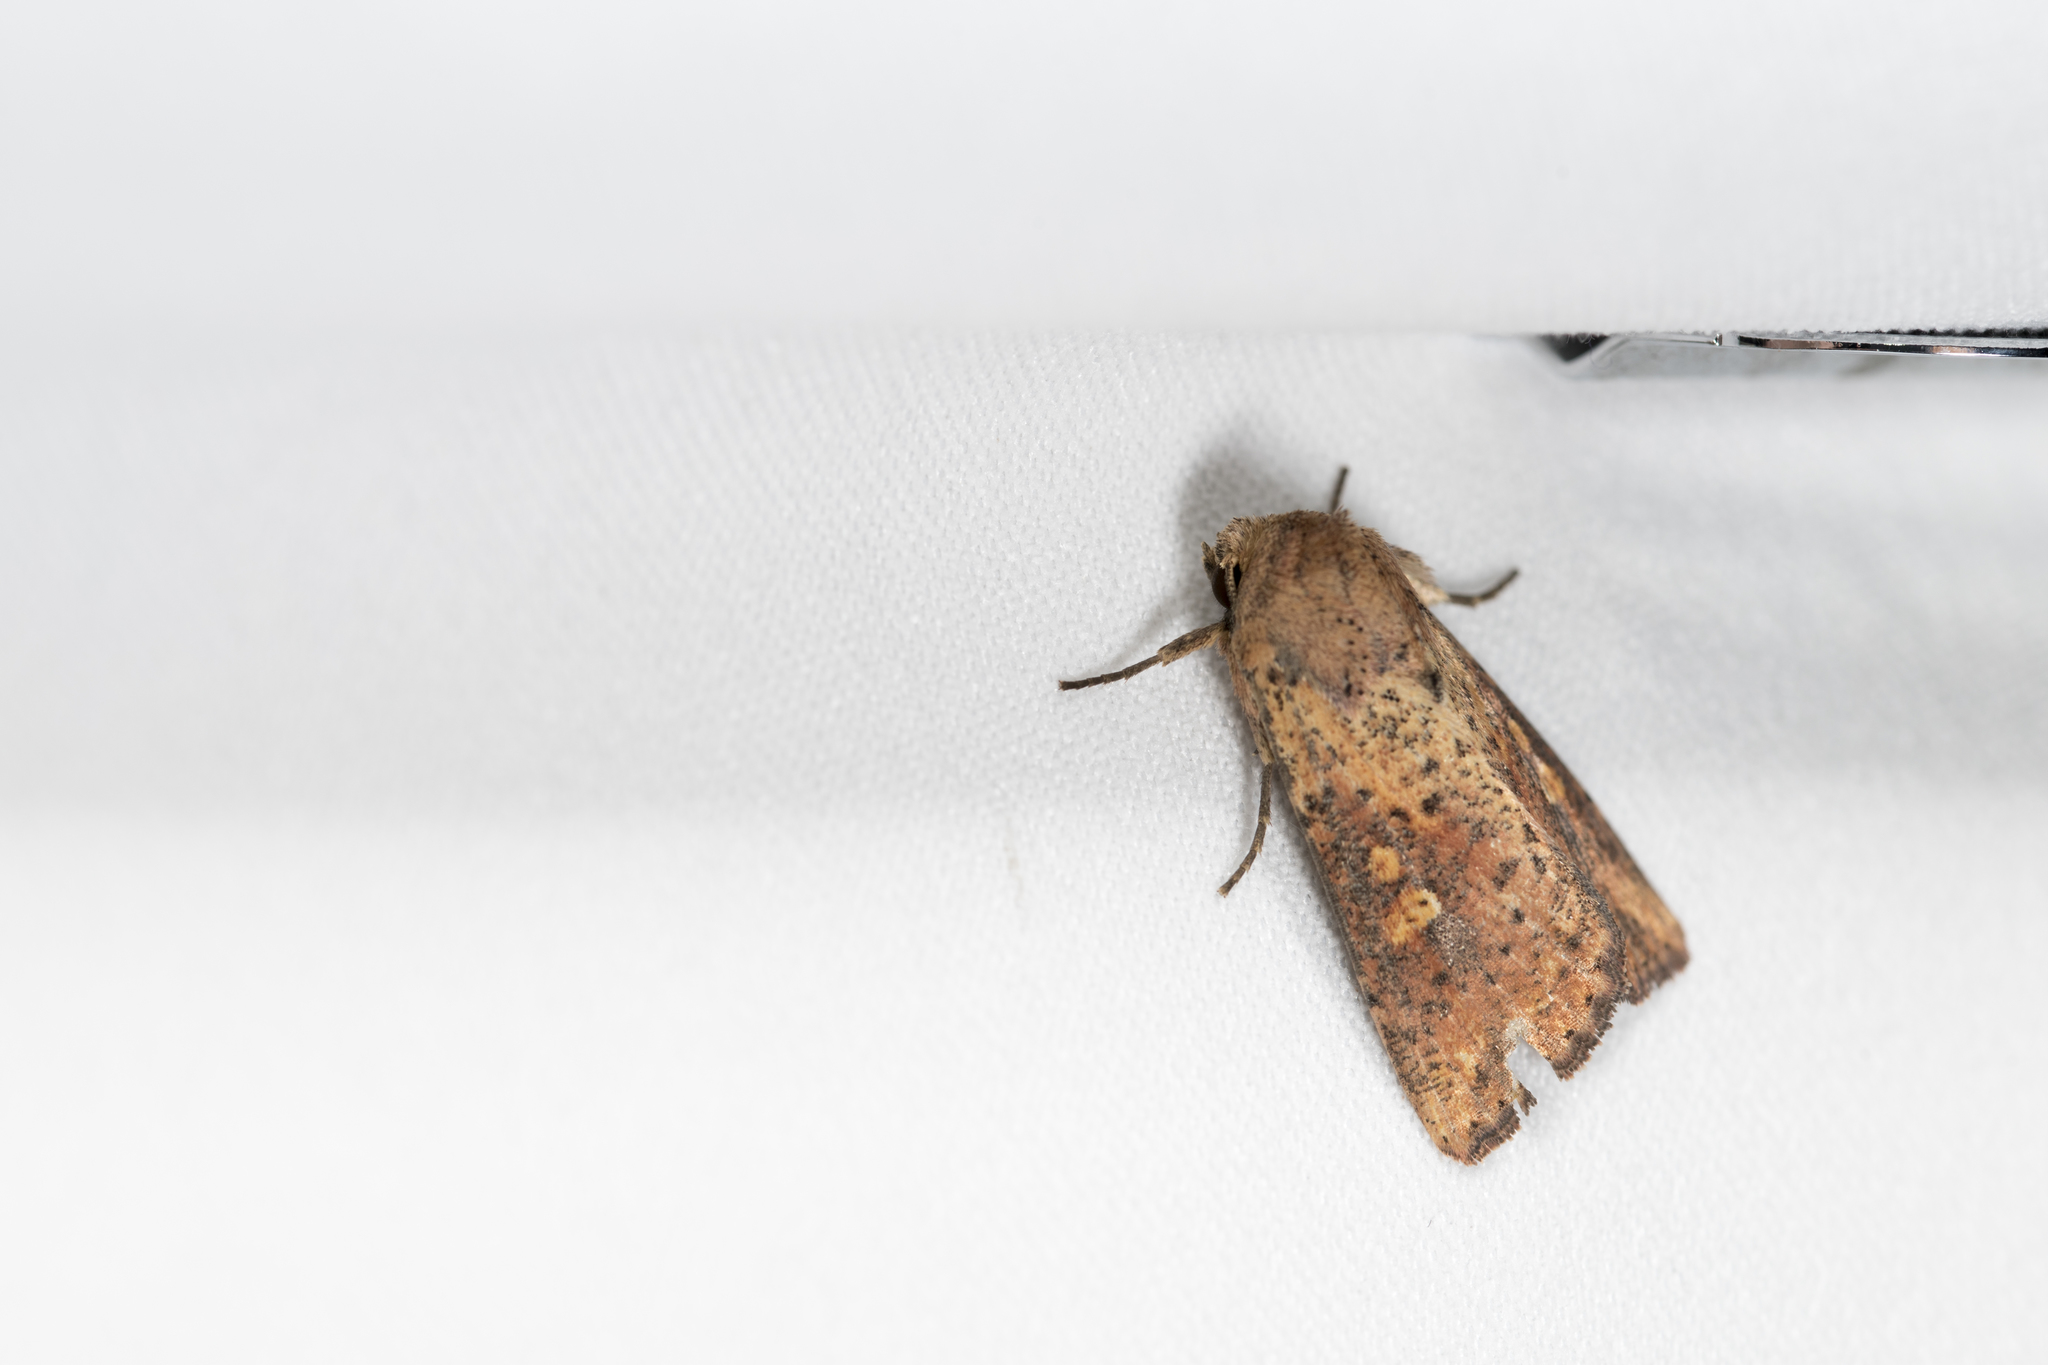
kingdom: Animalia
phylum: Arthropoda
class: Insecta
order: Lepidoptera
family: Noctuidae
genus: Mythimna
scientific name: Mythimna hannemanni
